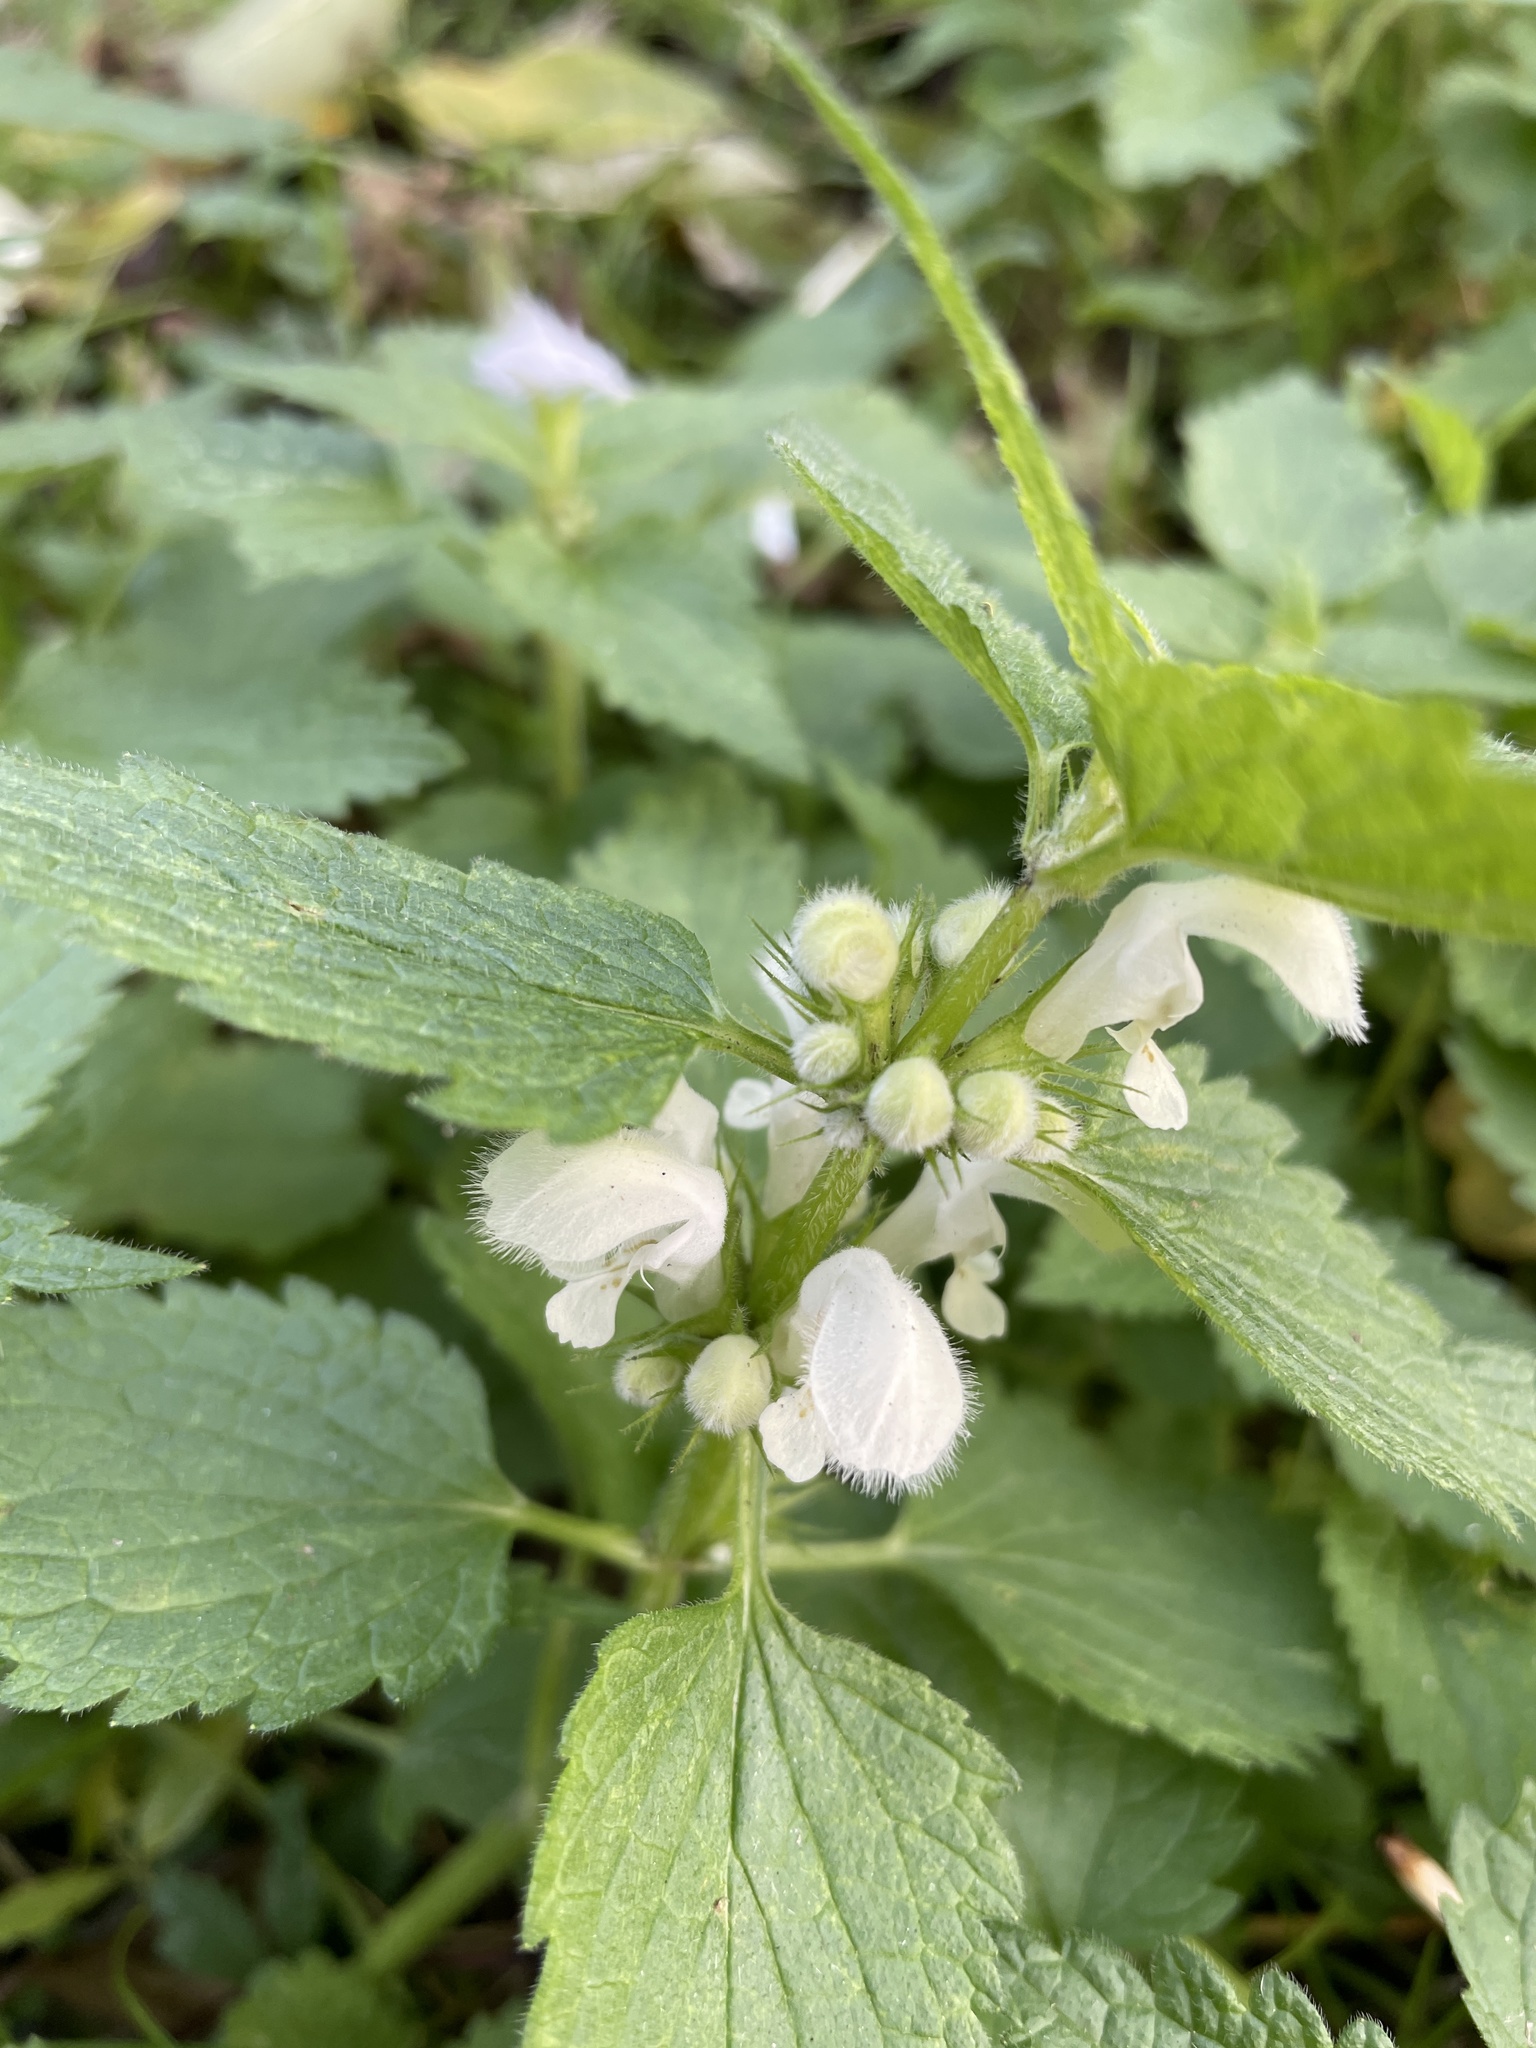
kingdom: Plantae
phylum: Tracheophyta
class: Magnoliopsida
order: Lamiales
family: Lamiaceae
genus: Lamium
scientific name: Lamium album
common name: White dead-nettle
